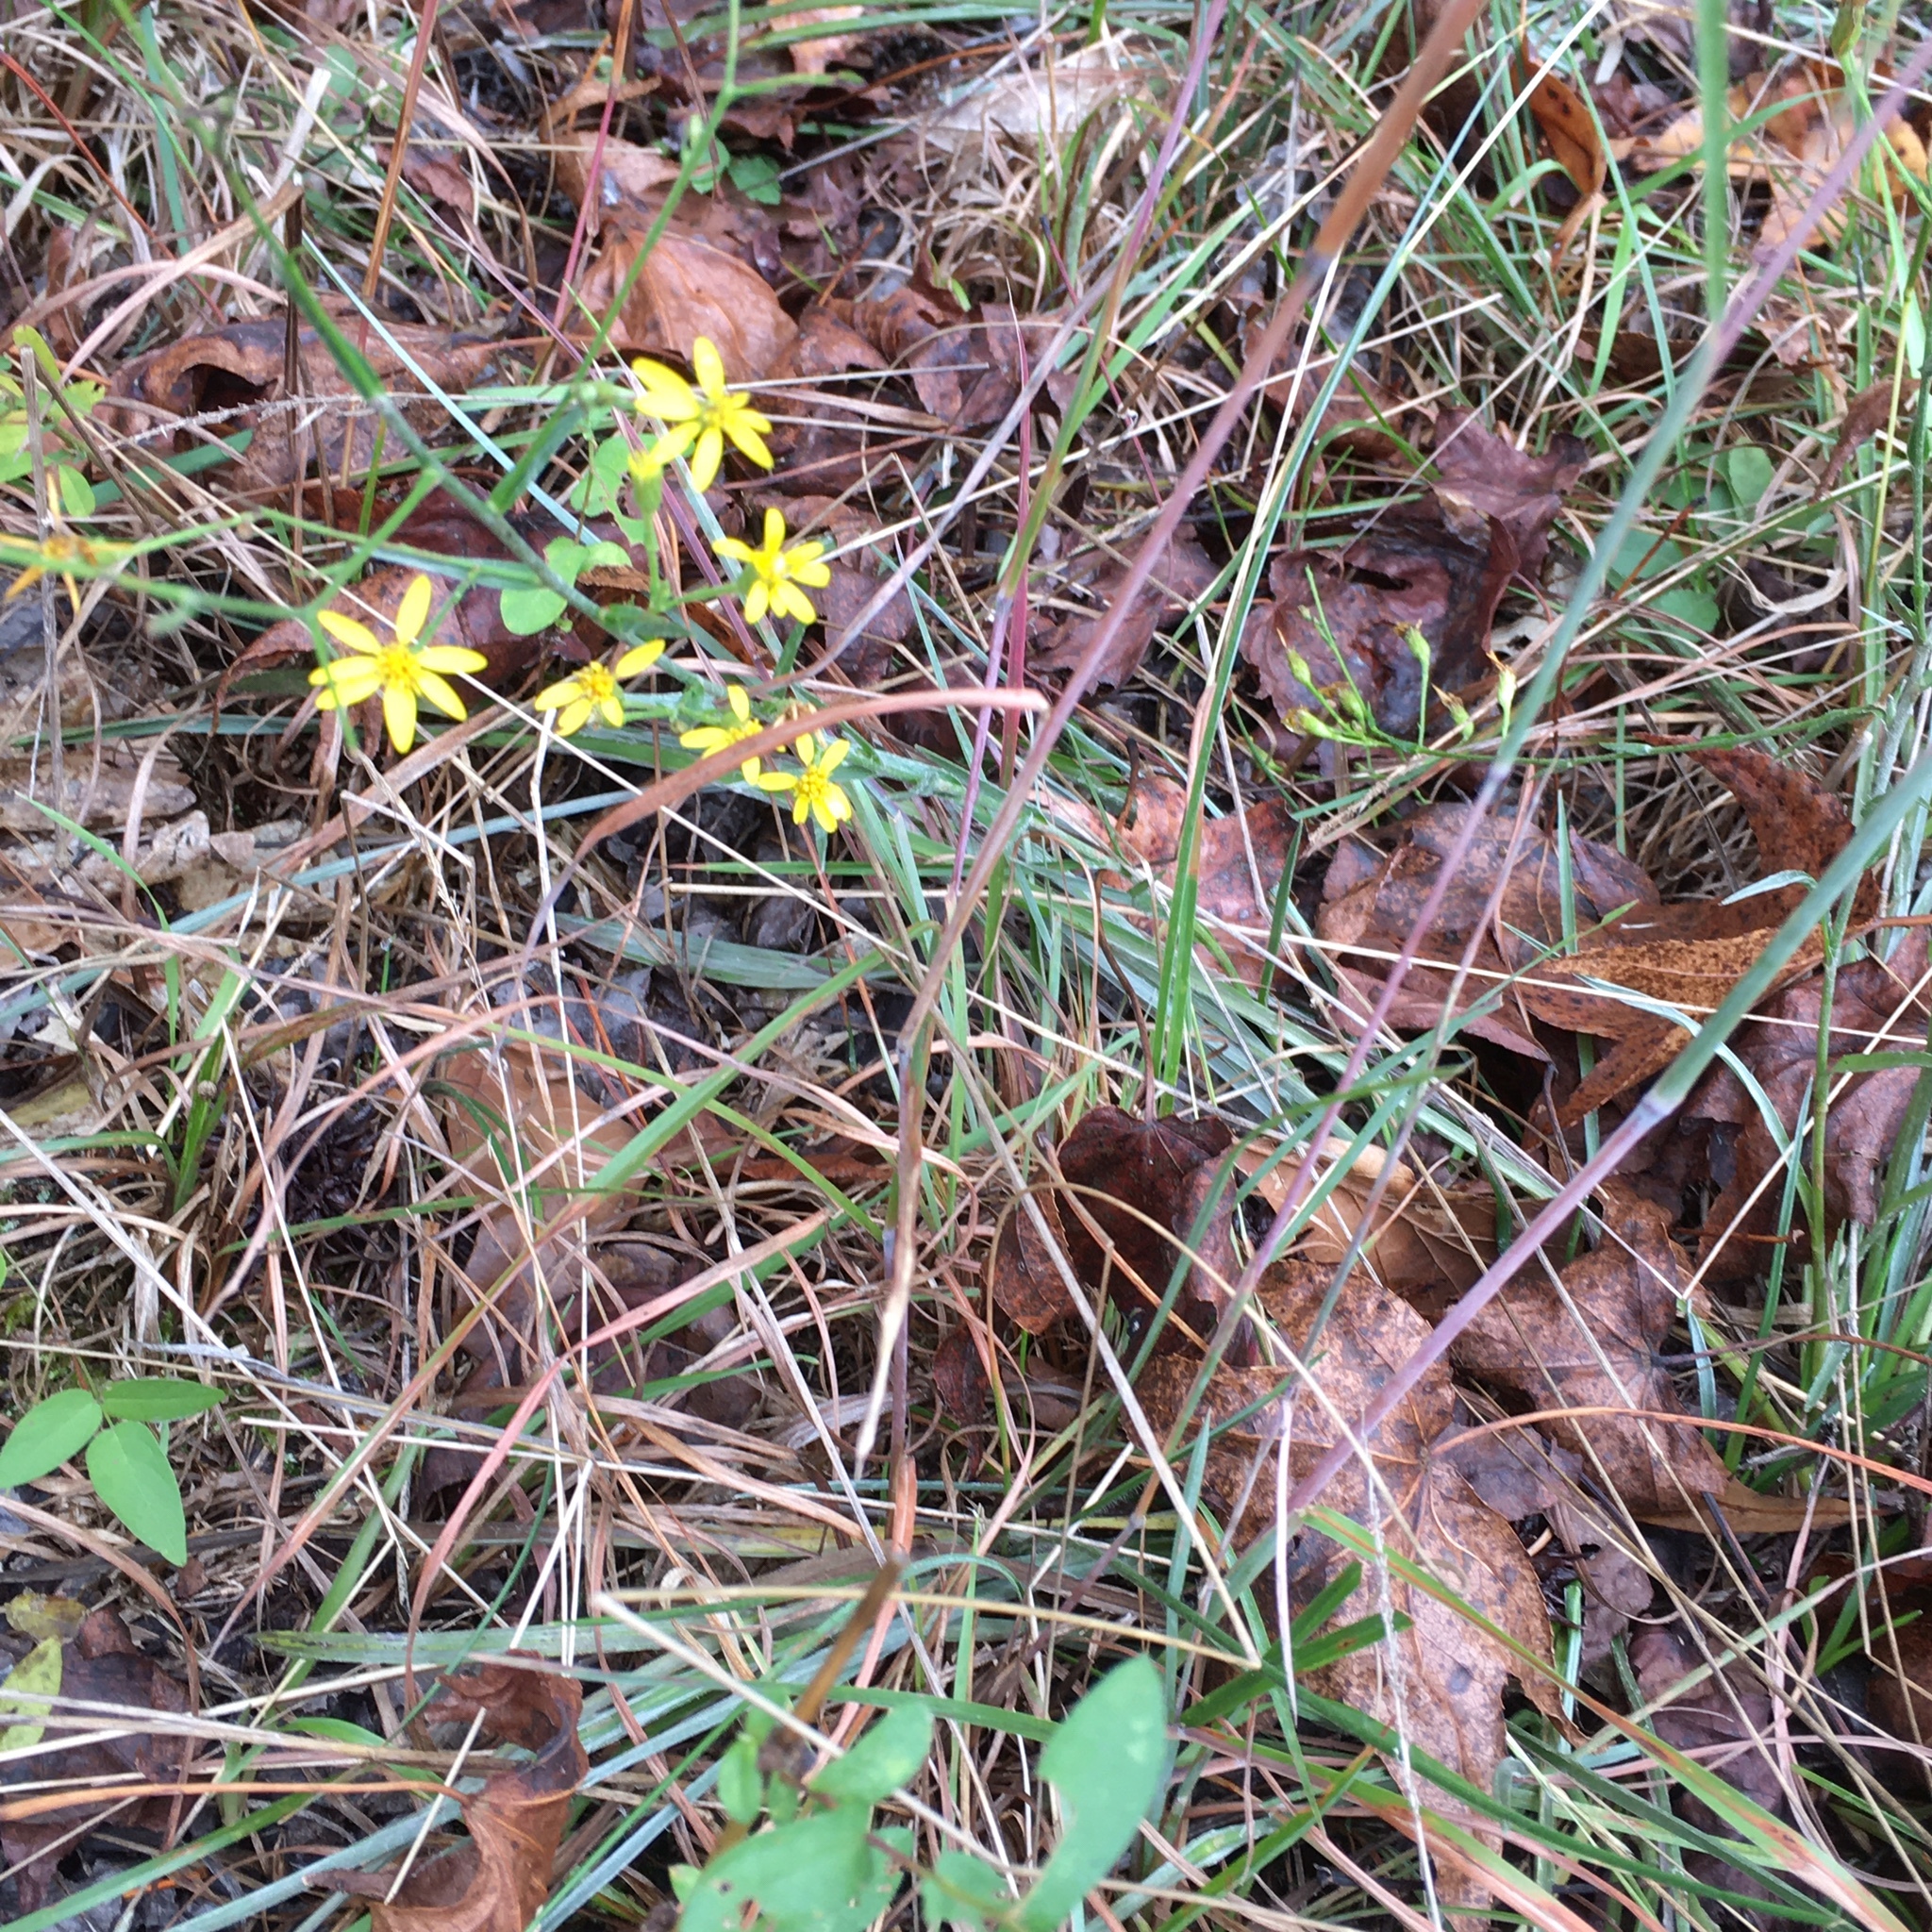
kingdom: Plantae
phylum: Tracheophyta
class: Magnoliopsida
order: Asterales
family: Asteraceae
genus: Pityopsis
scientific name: Pityopsis aspera
